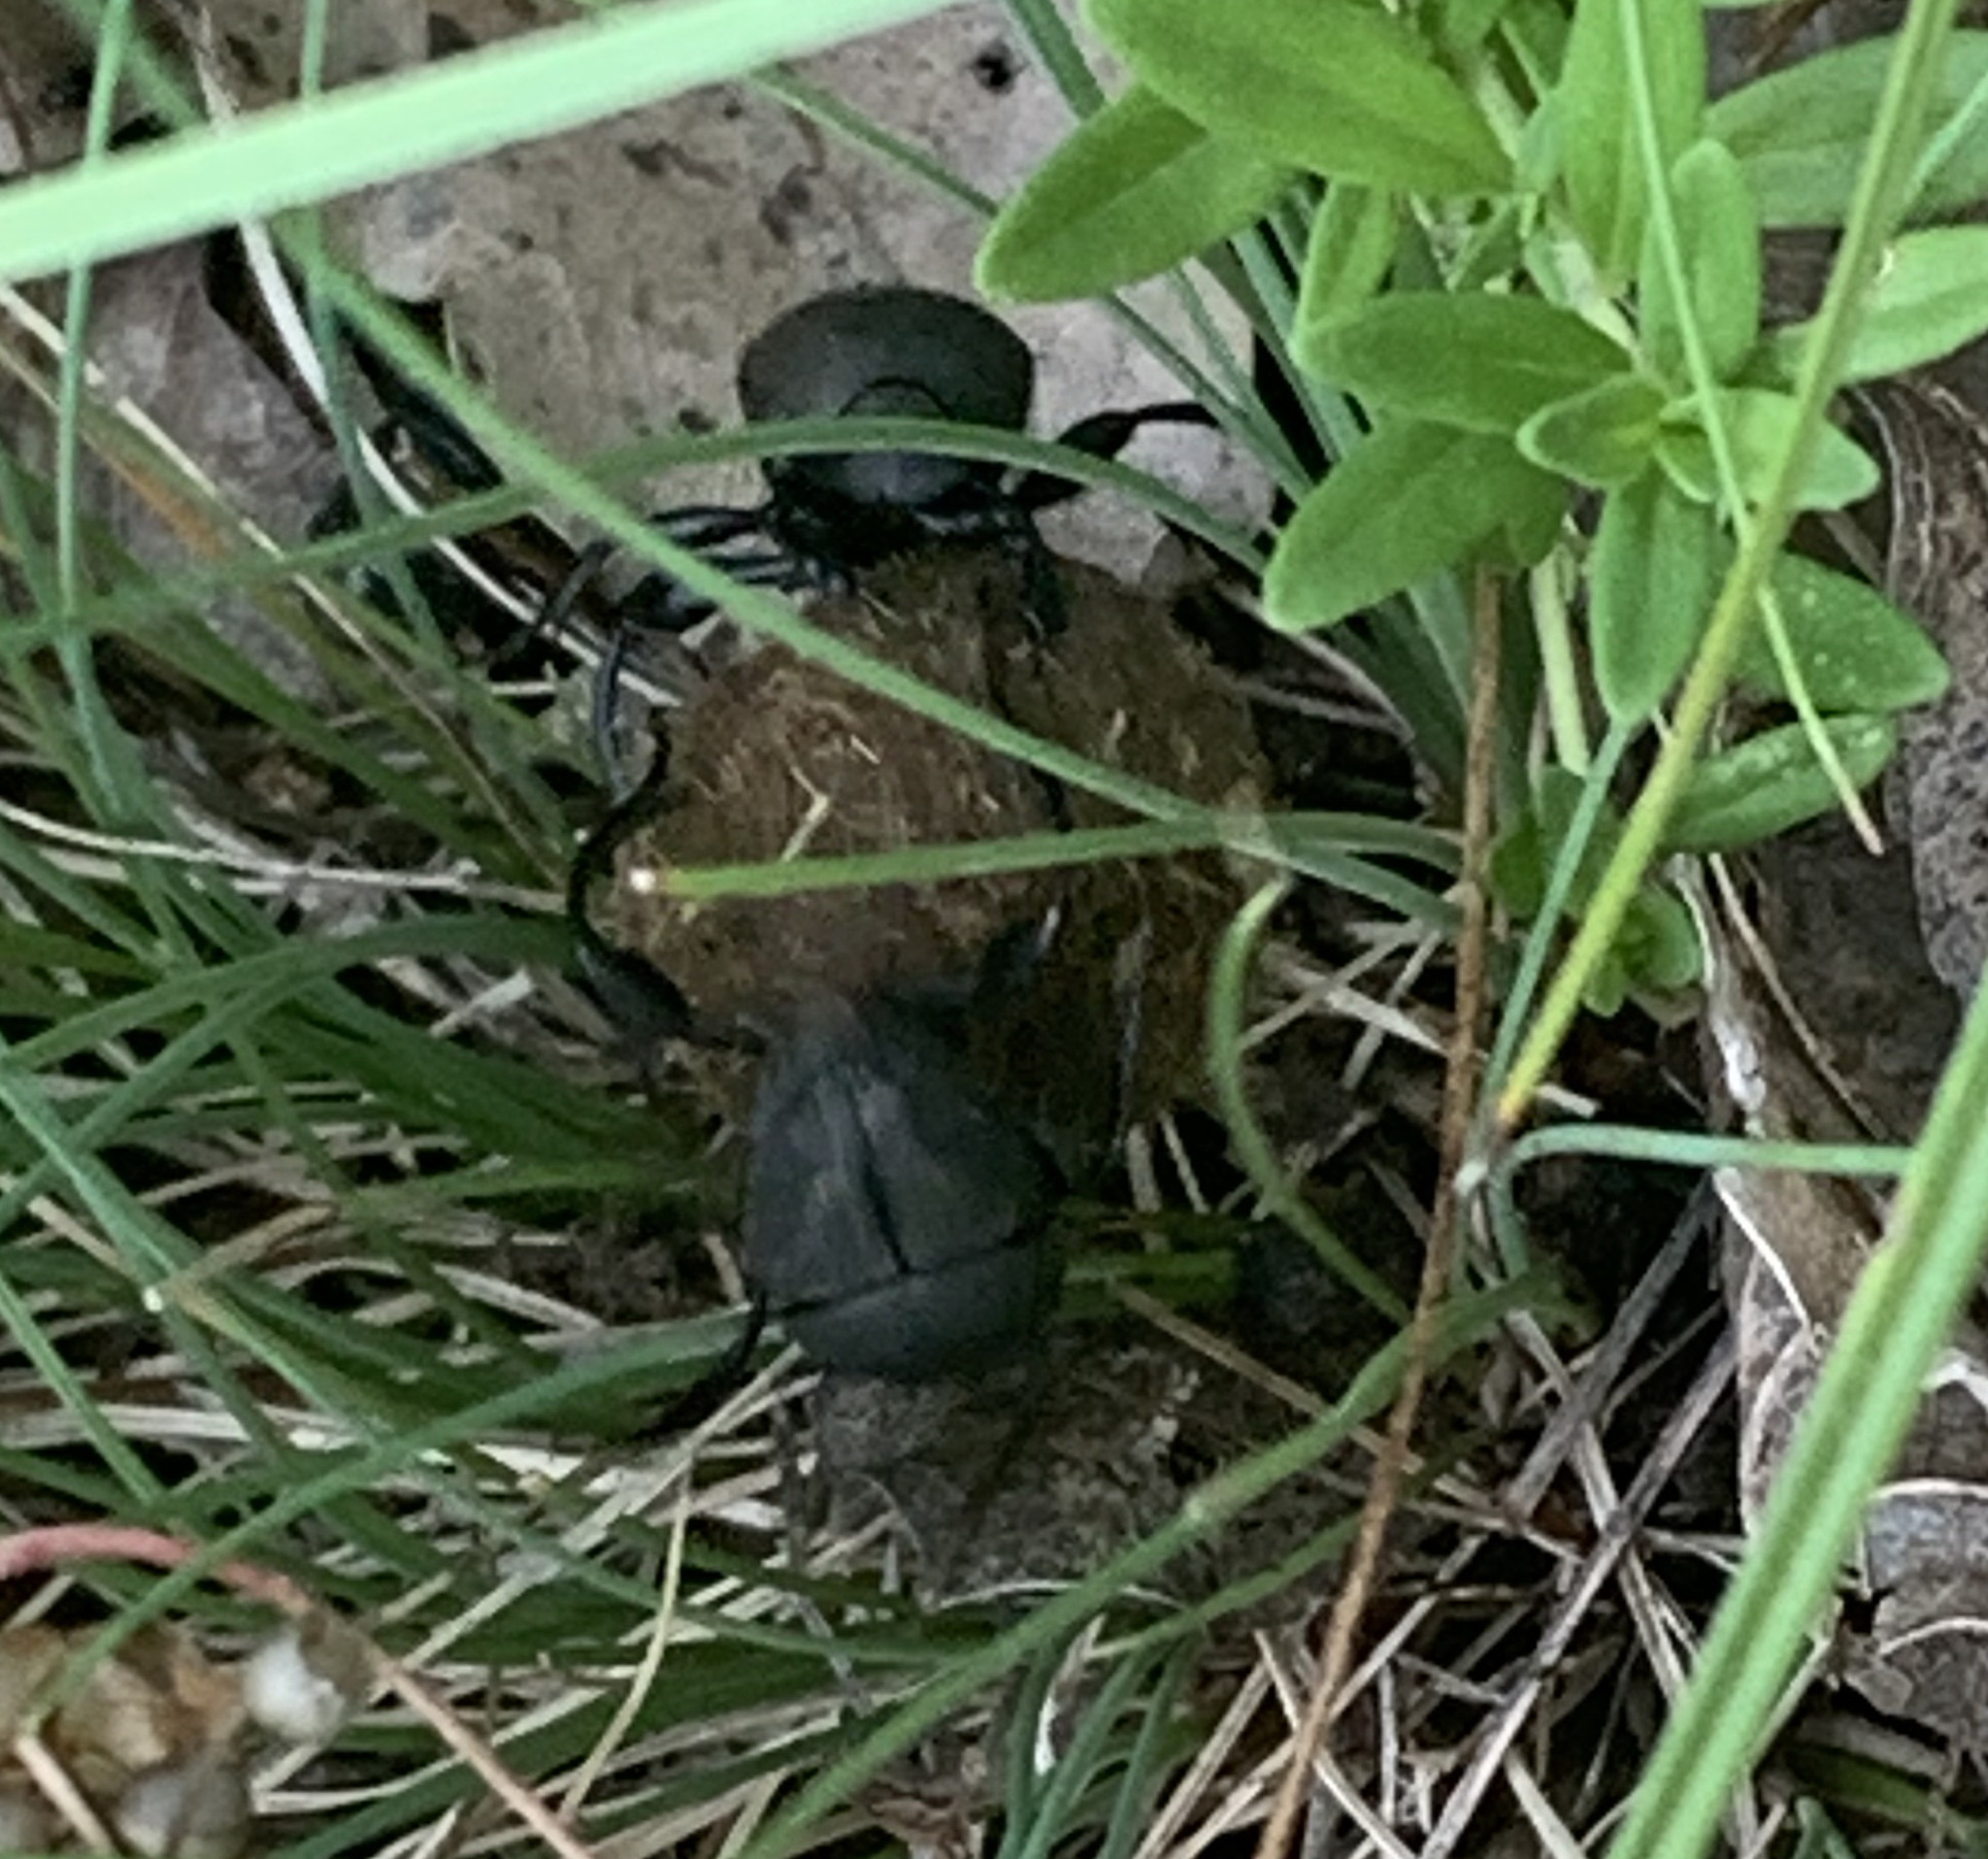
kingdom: Animalia
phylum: Arthropoda
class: Insecta
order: Coleoptera
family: Scarabaeidae
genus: Sisyphus
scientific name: Sisyphus schaefferi
